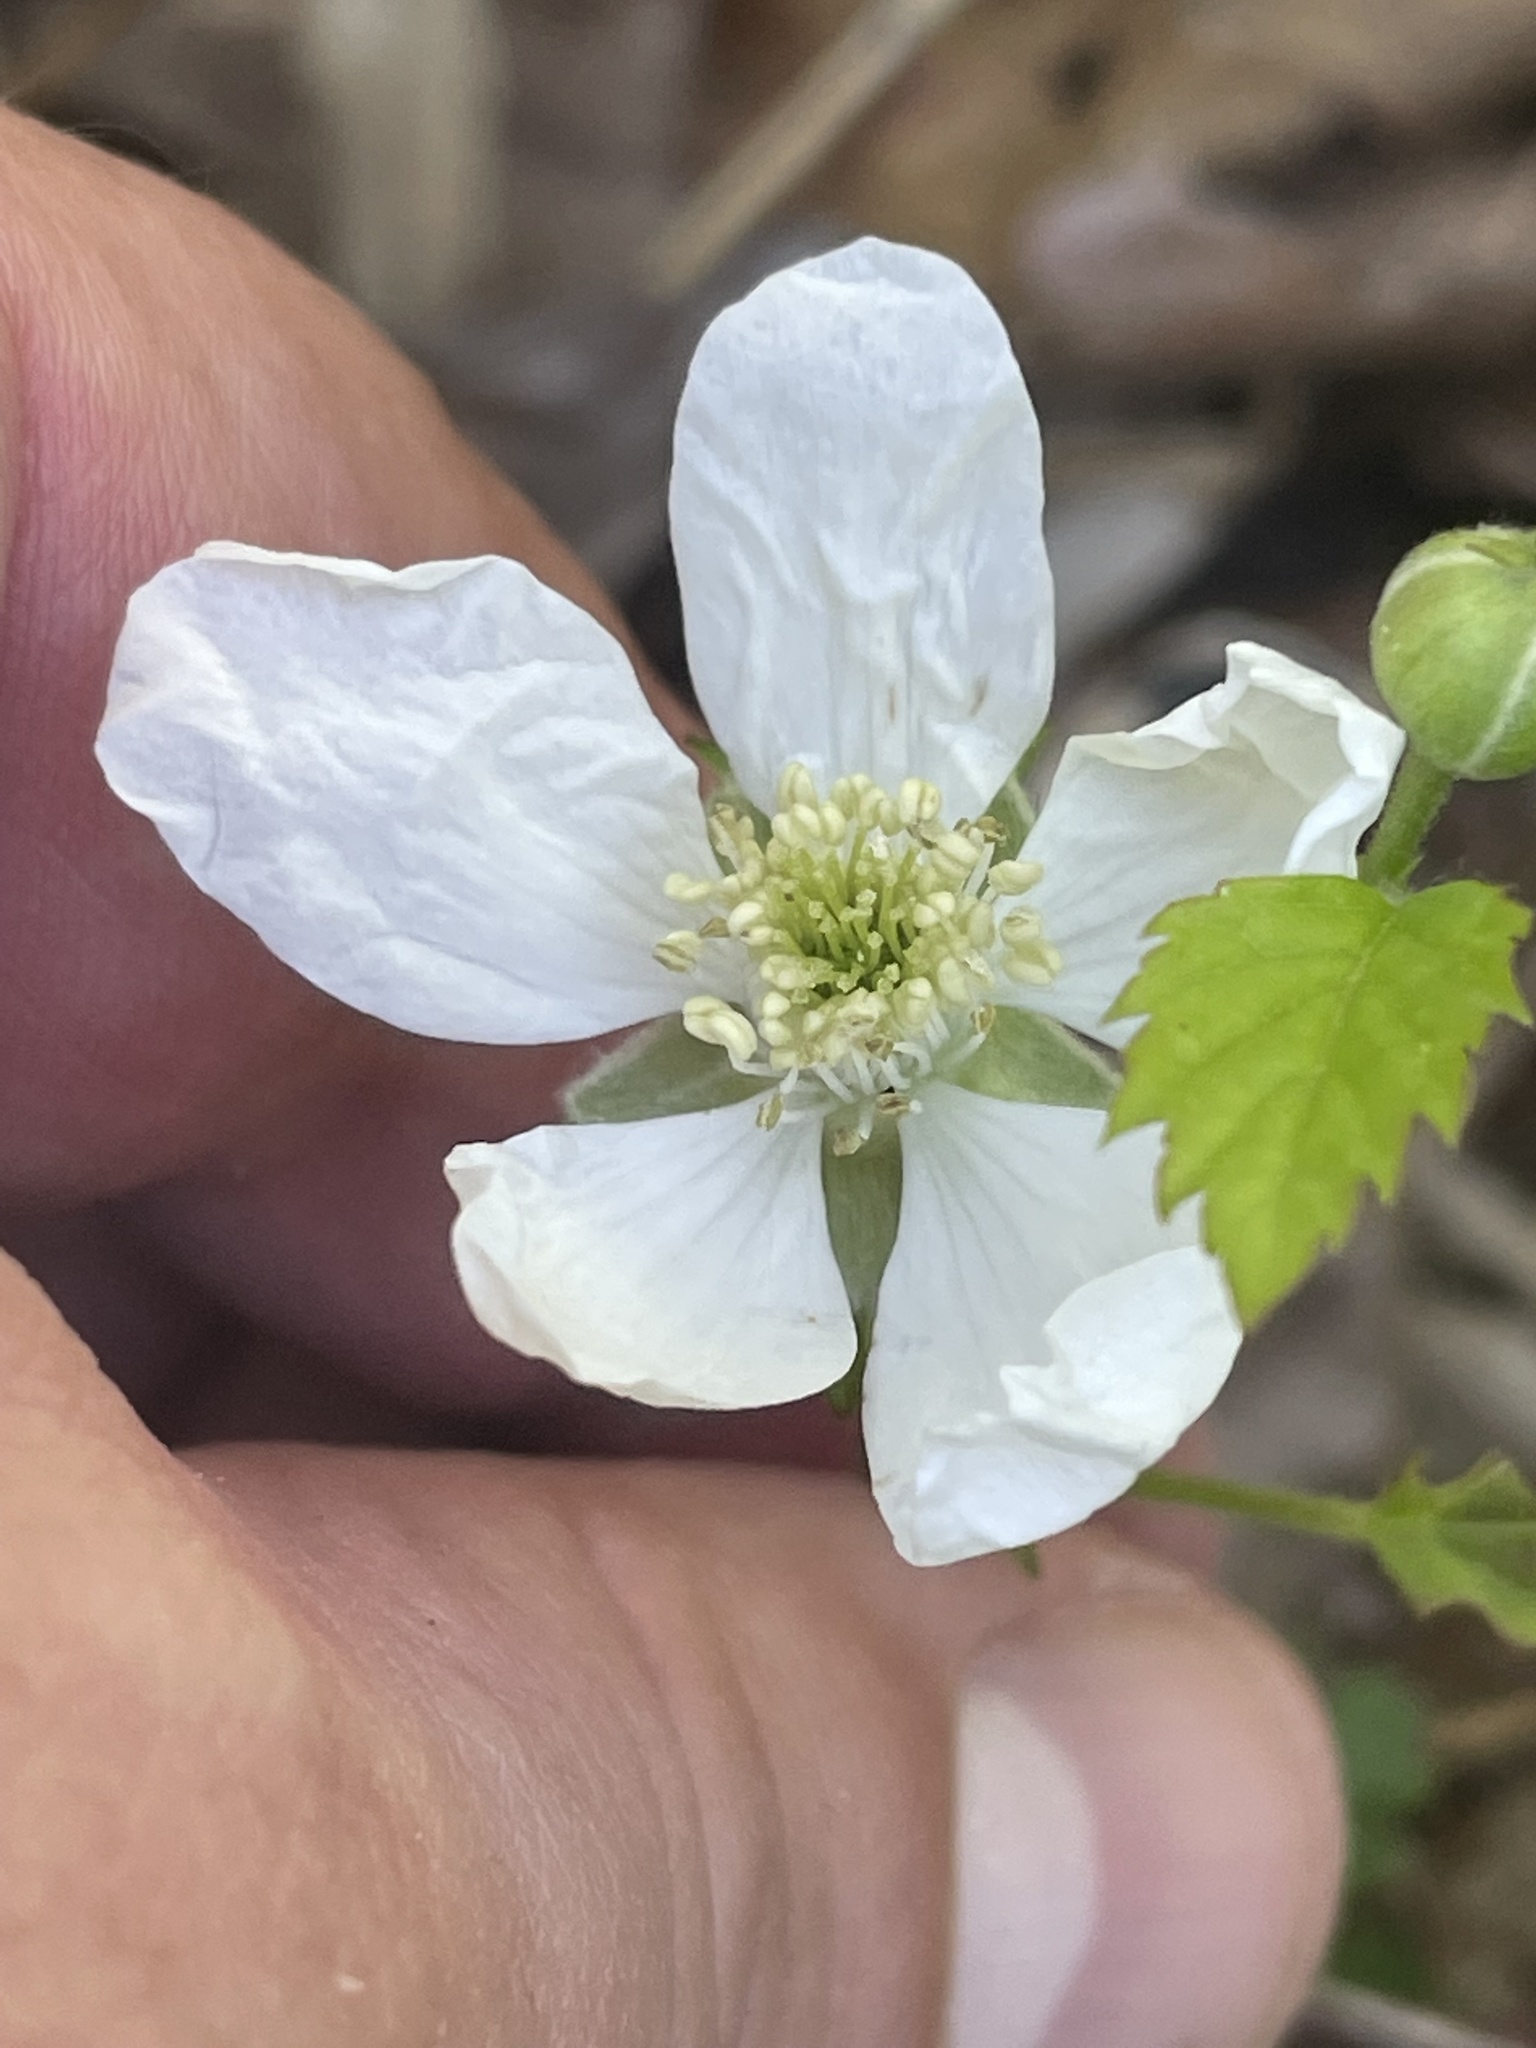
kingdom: Plantae
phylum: Tracheophyta
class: Magnoliopsida
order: Rosales
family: Rosaceae
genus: Rubus
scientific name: Rubus flagellaris
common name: American dewberry
